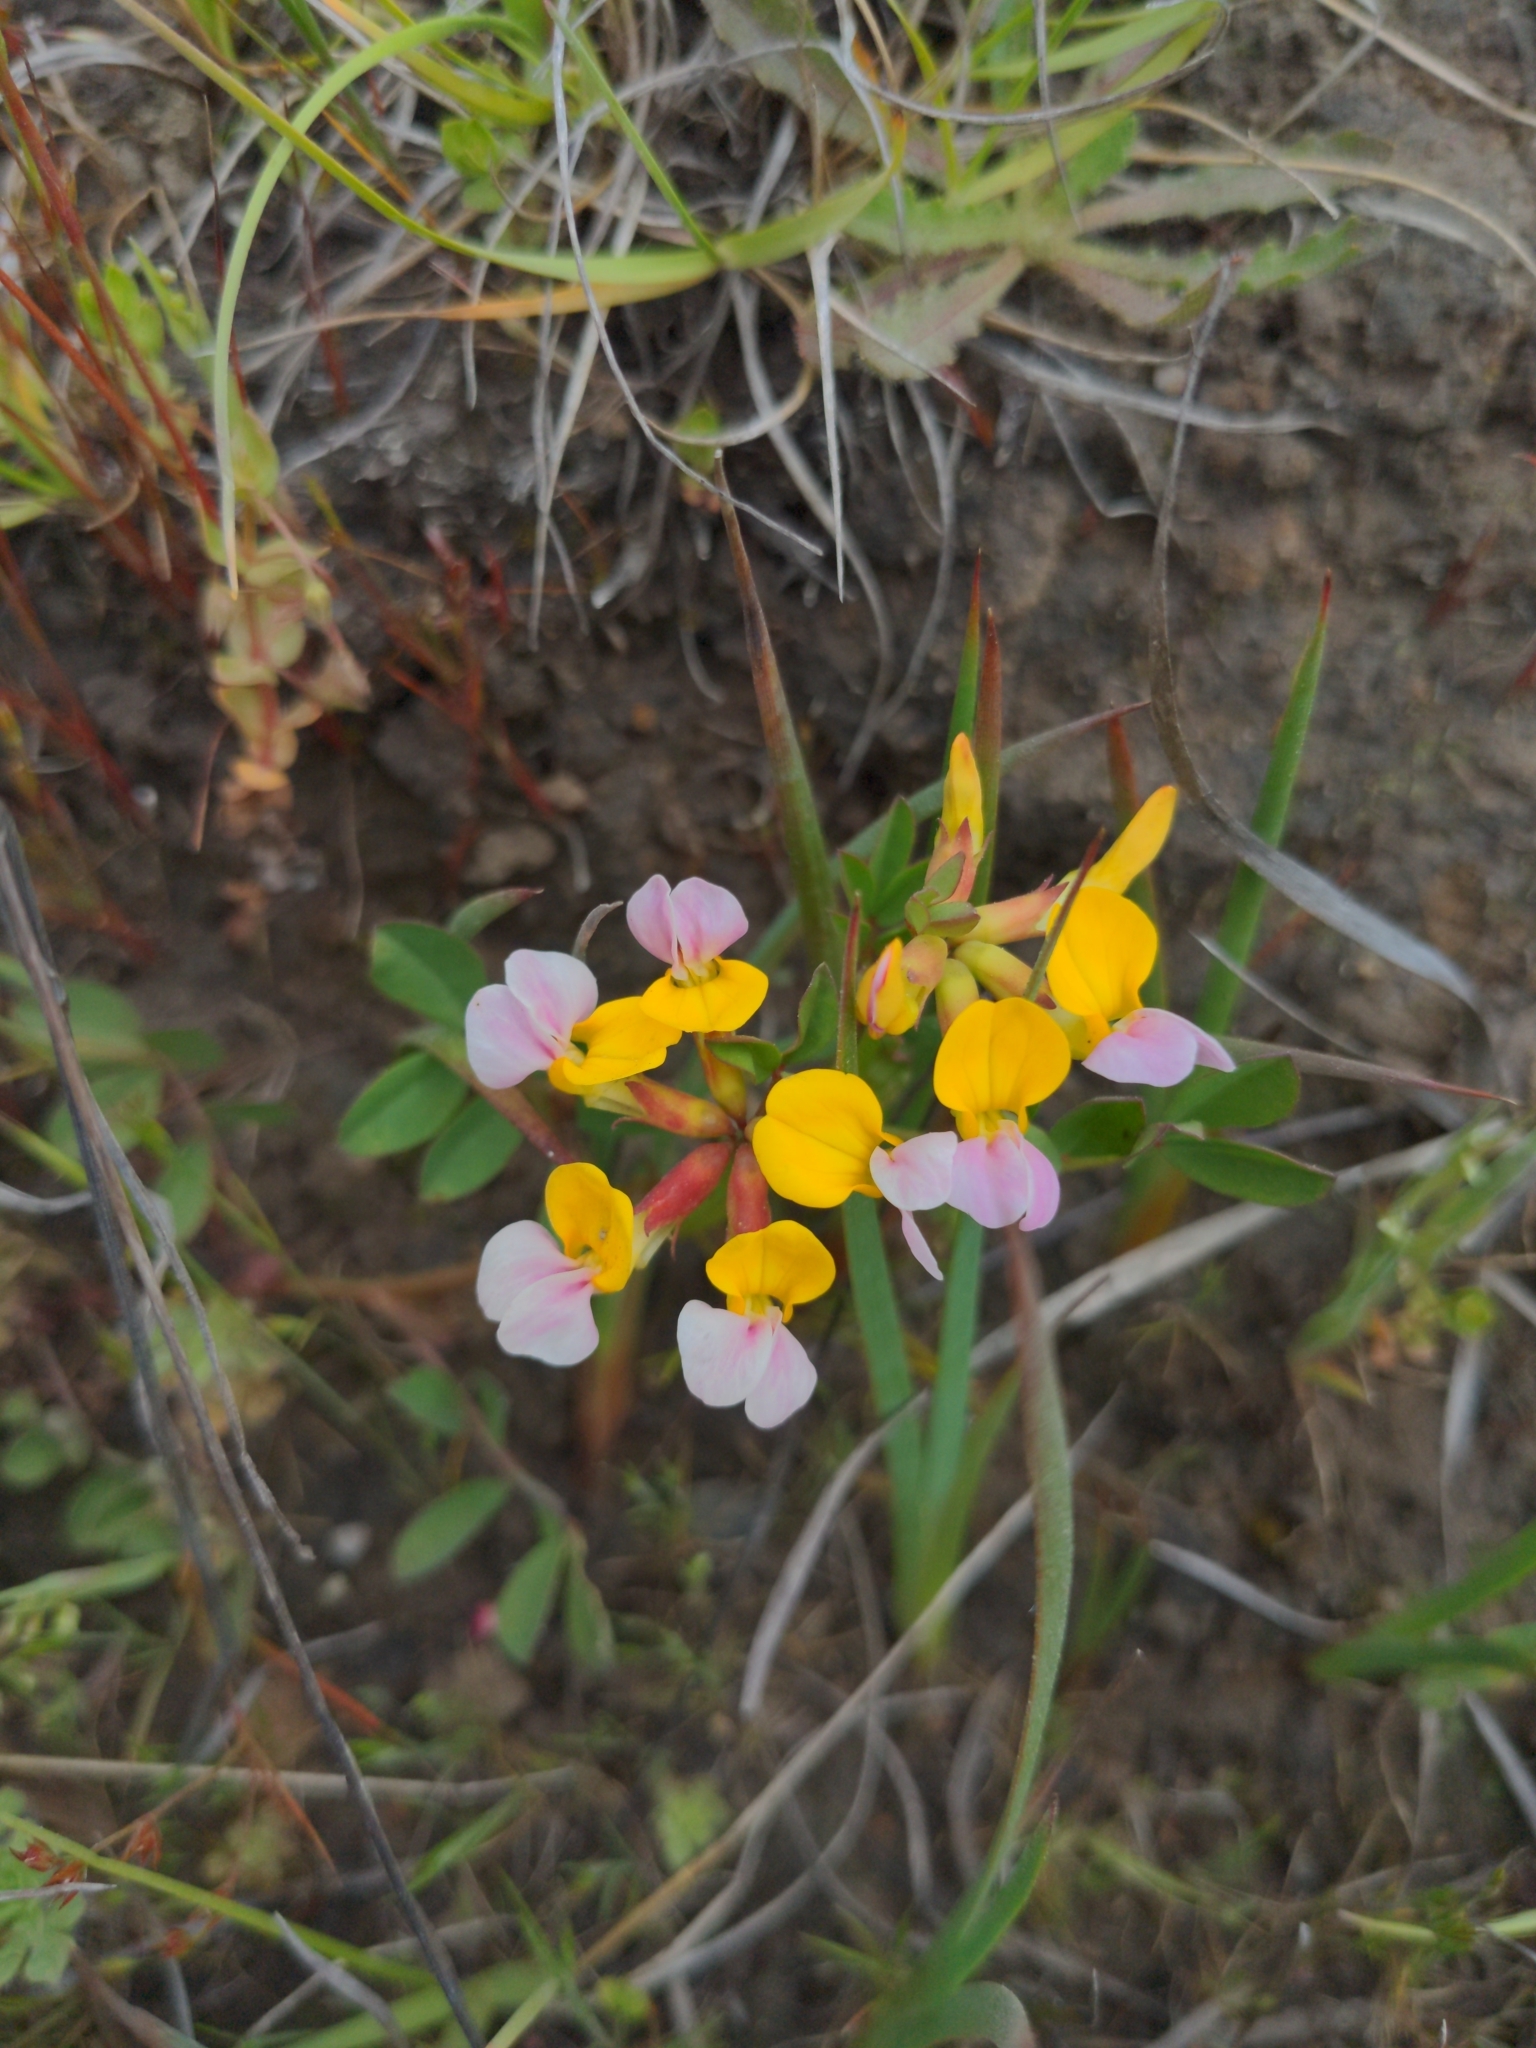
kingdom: Plantae
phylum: Tracheophyta
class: Magnoliopsida
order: Fabales
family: Fabaceae
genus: Hosackia
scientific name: Hosackia gracilis
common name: Seaside bird's-foot lotus
